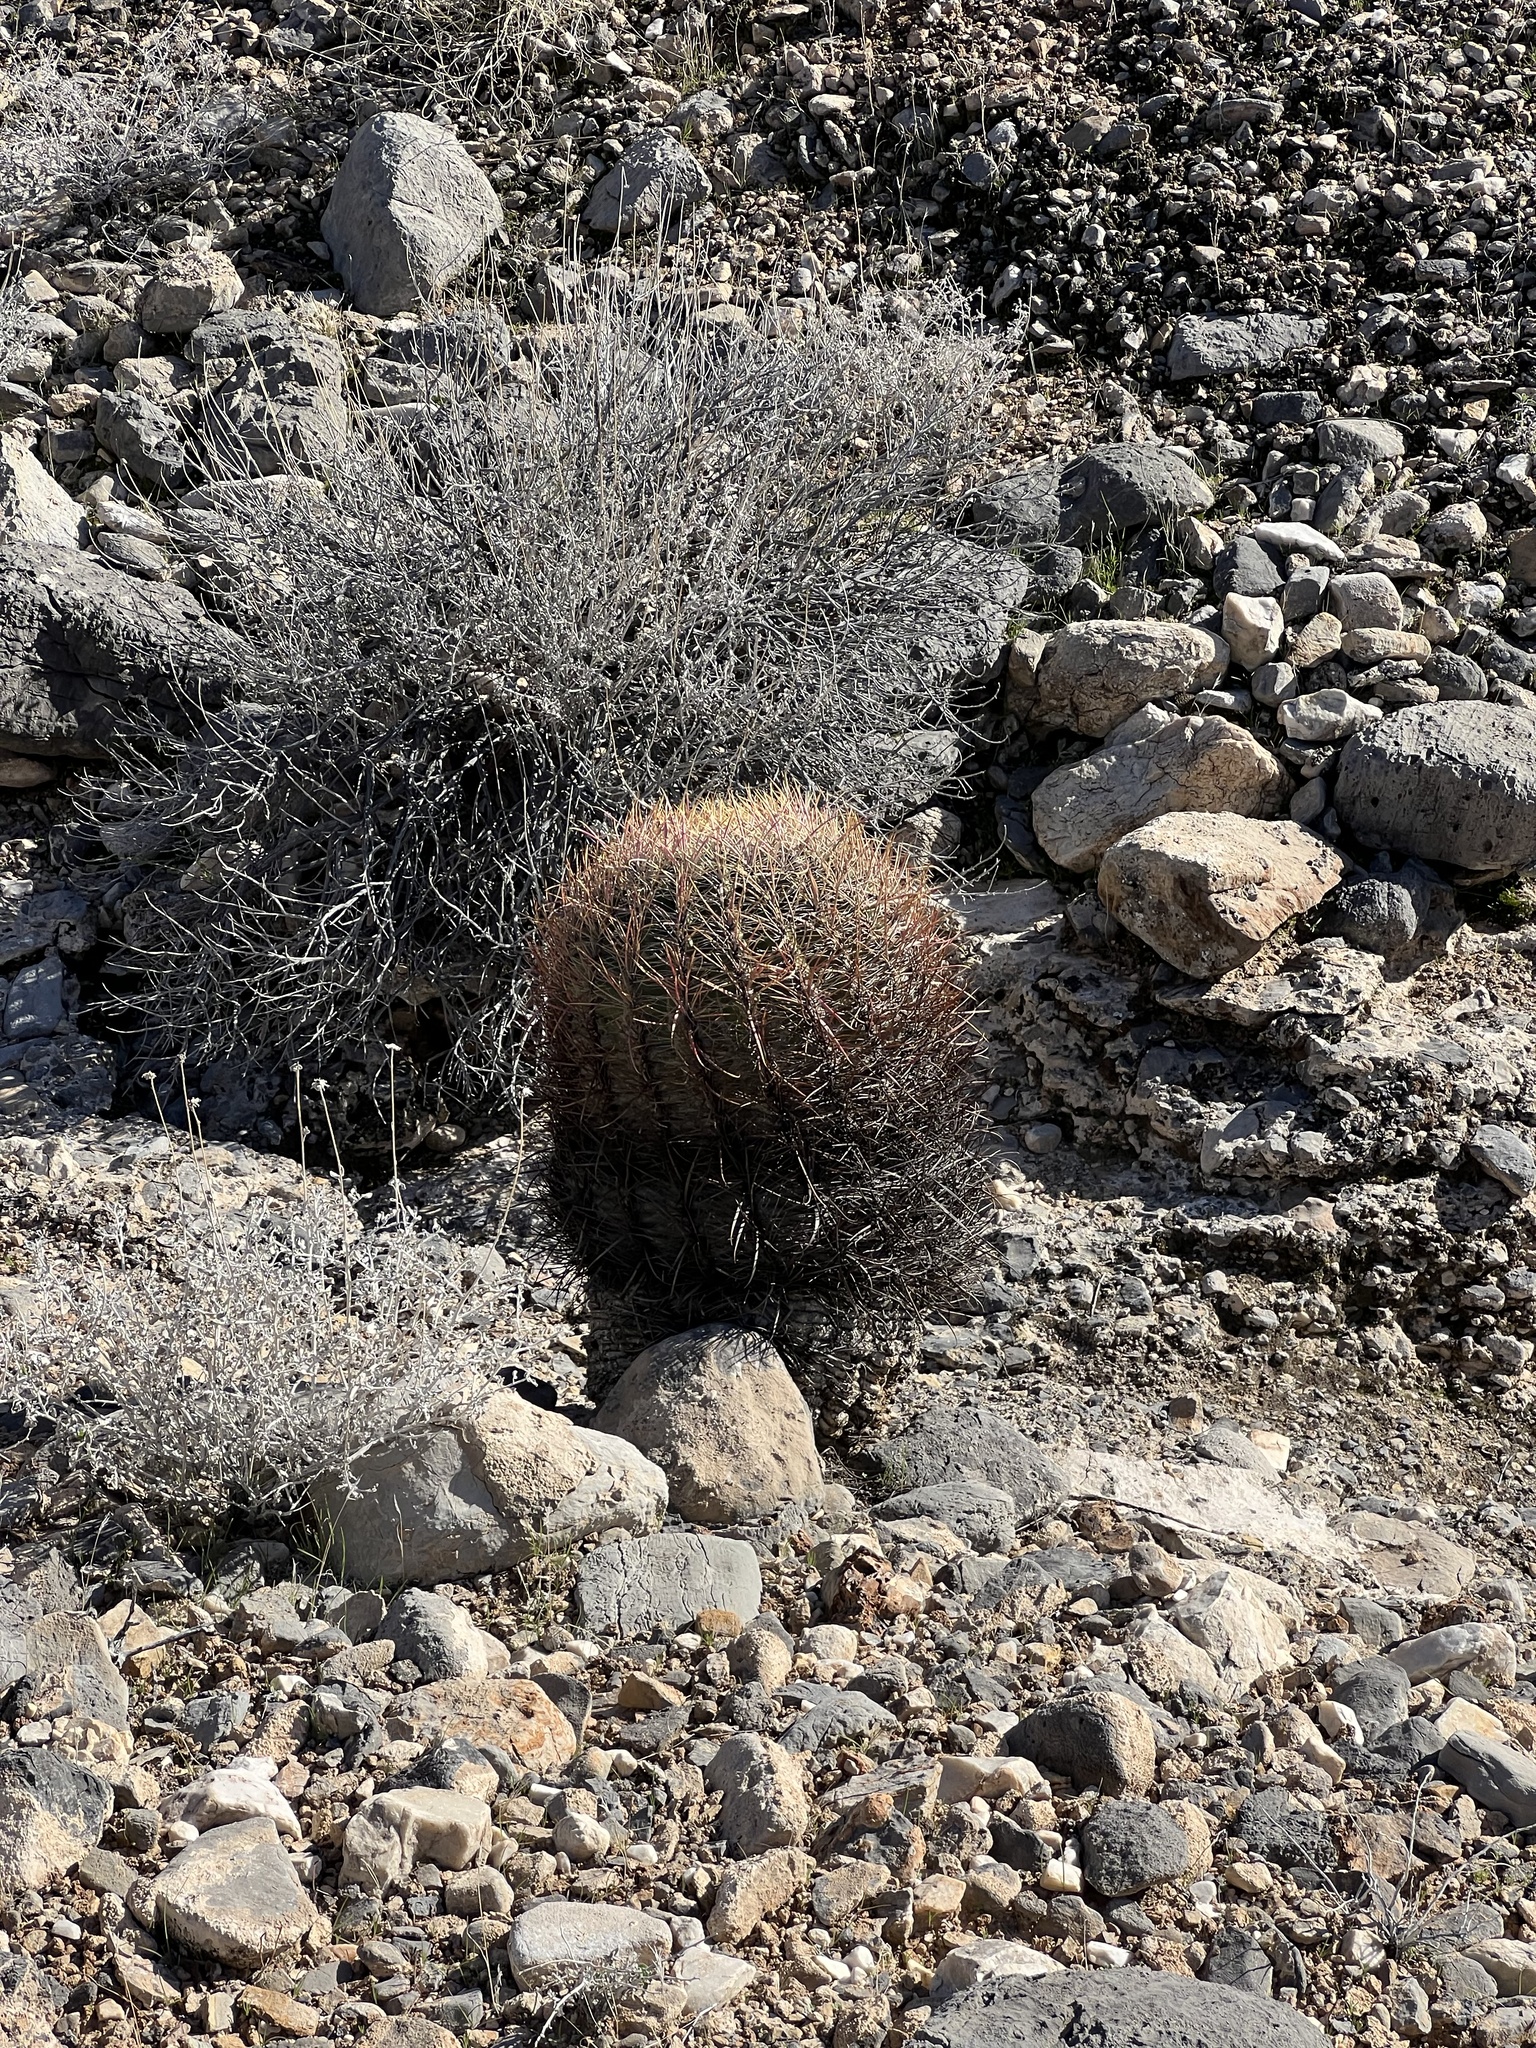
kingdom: Plantae
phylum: Tracheophyta
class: Magnoliopsida
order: Caryophyllales
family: Cactaceae
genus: Ferocactus
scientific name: Ferocactus cylindraceus
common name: California barrel cactus
